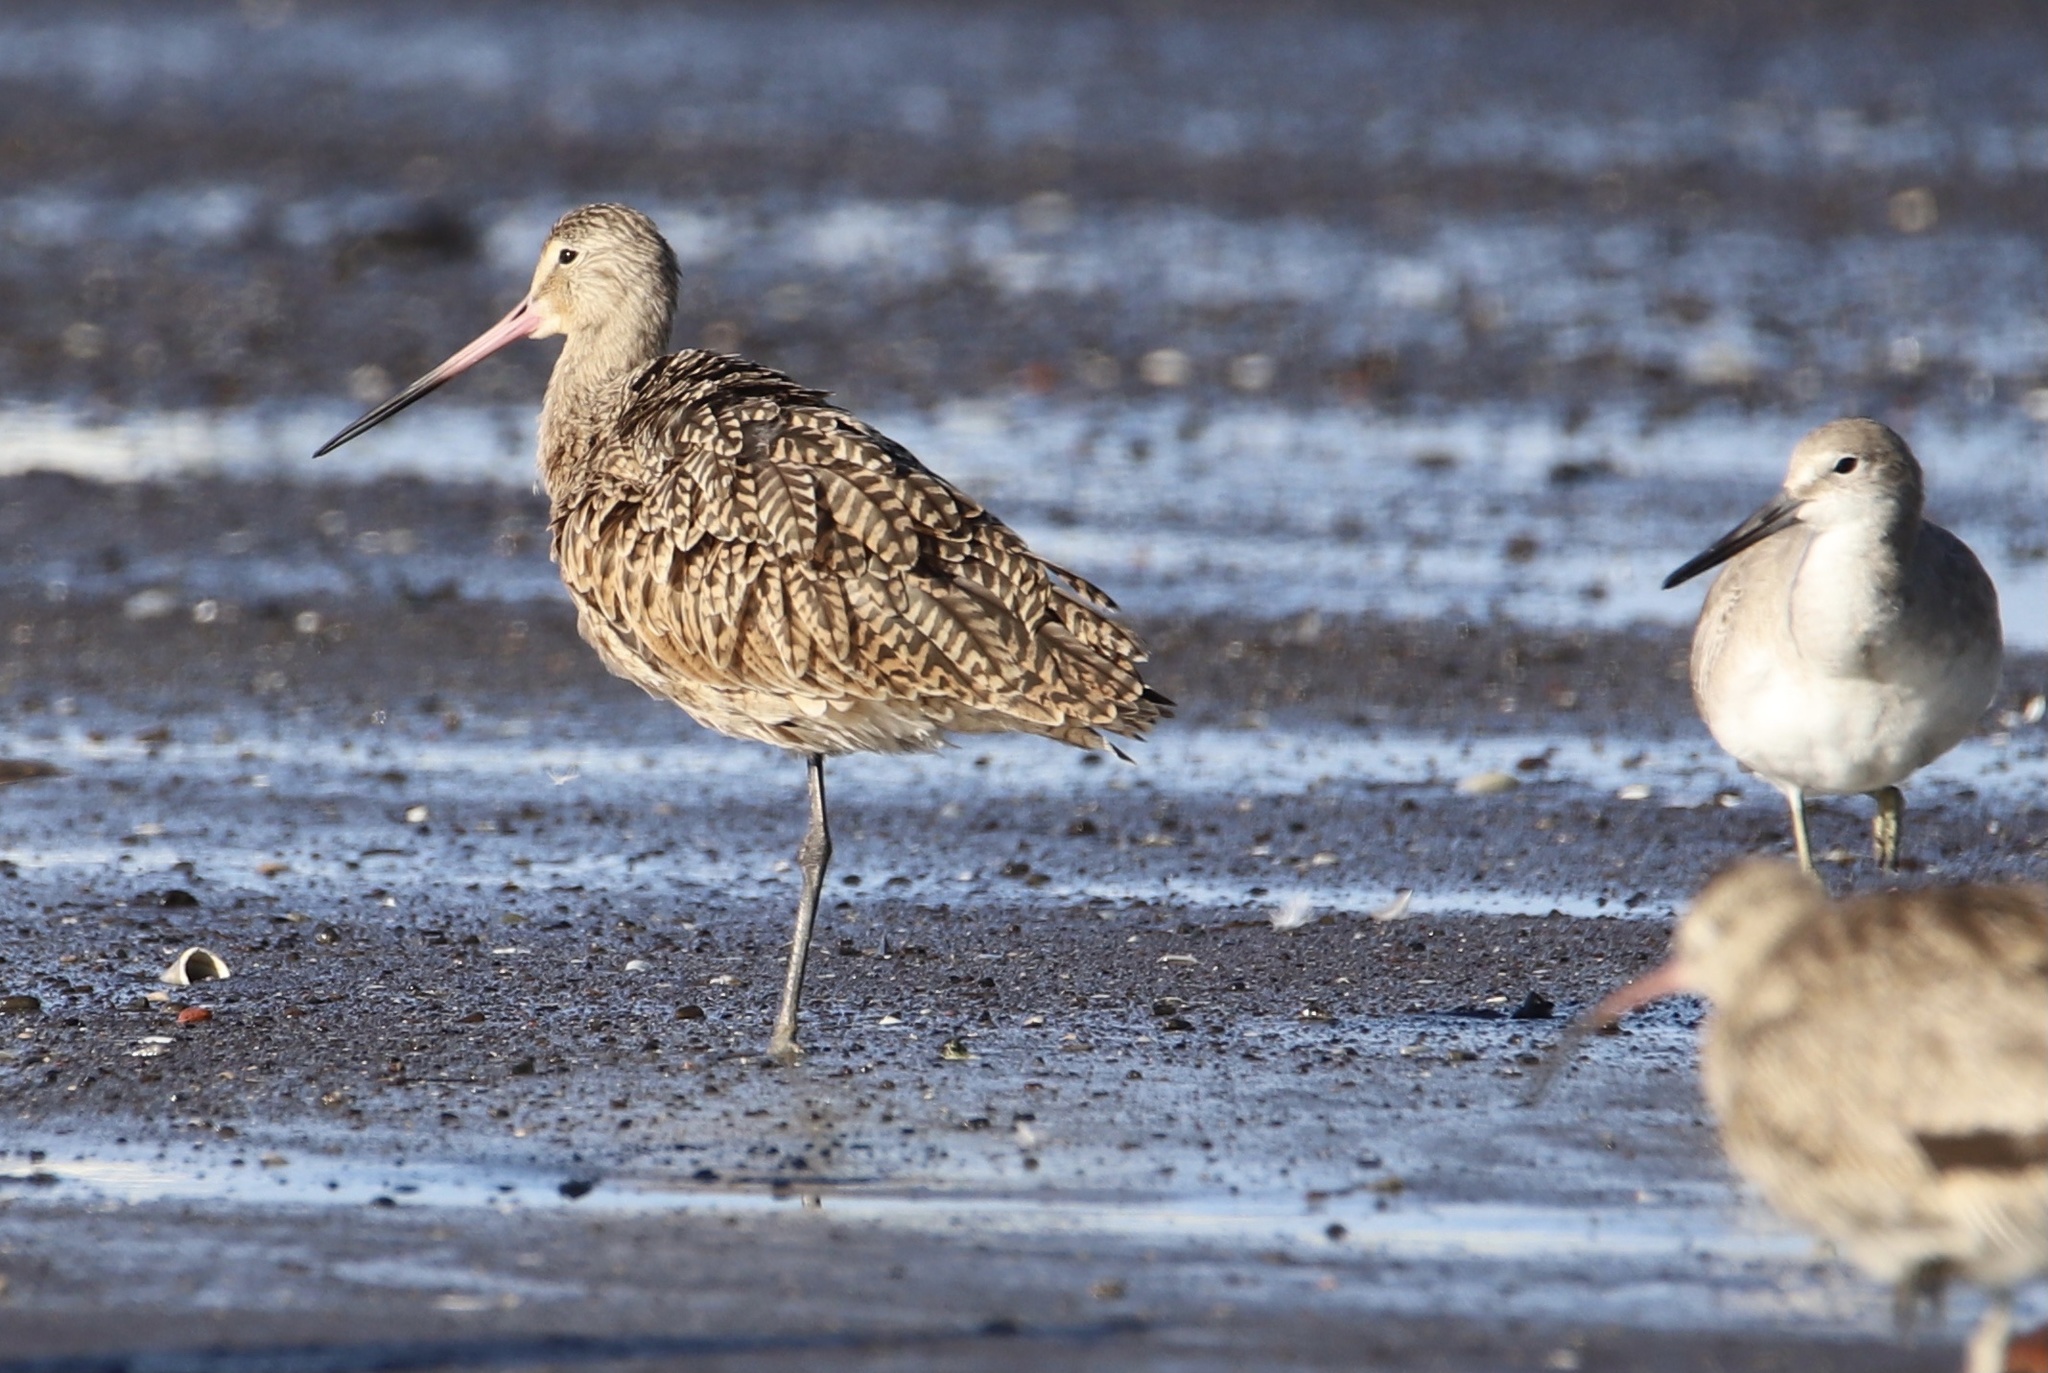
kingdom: Animalia
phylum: Chordata
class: Aves
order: Charadriiformes
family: Scolopacidae
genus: Limosa
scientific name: Limosa fedoa
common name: Marbled godwit
